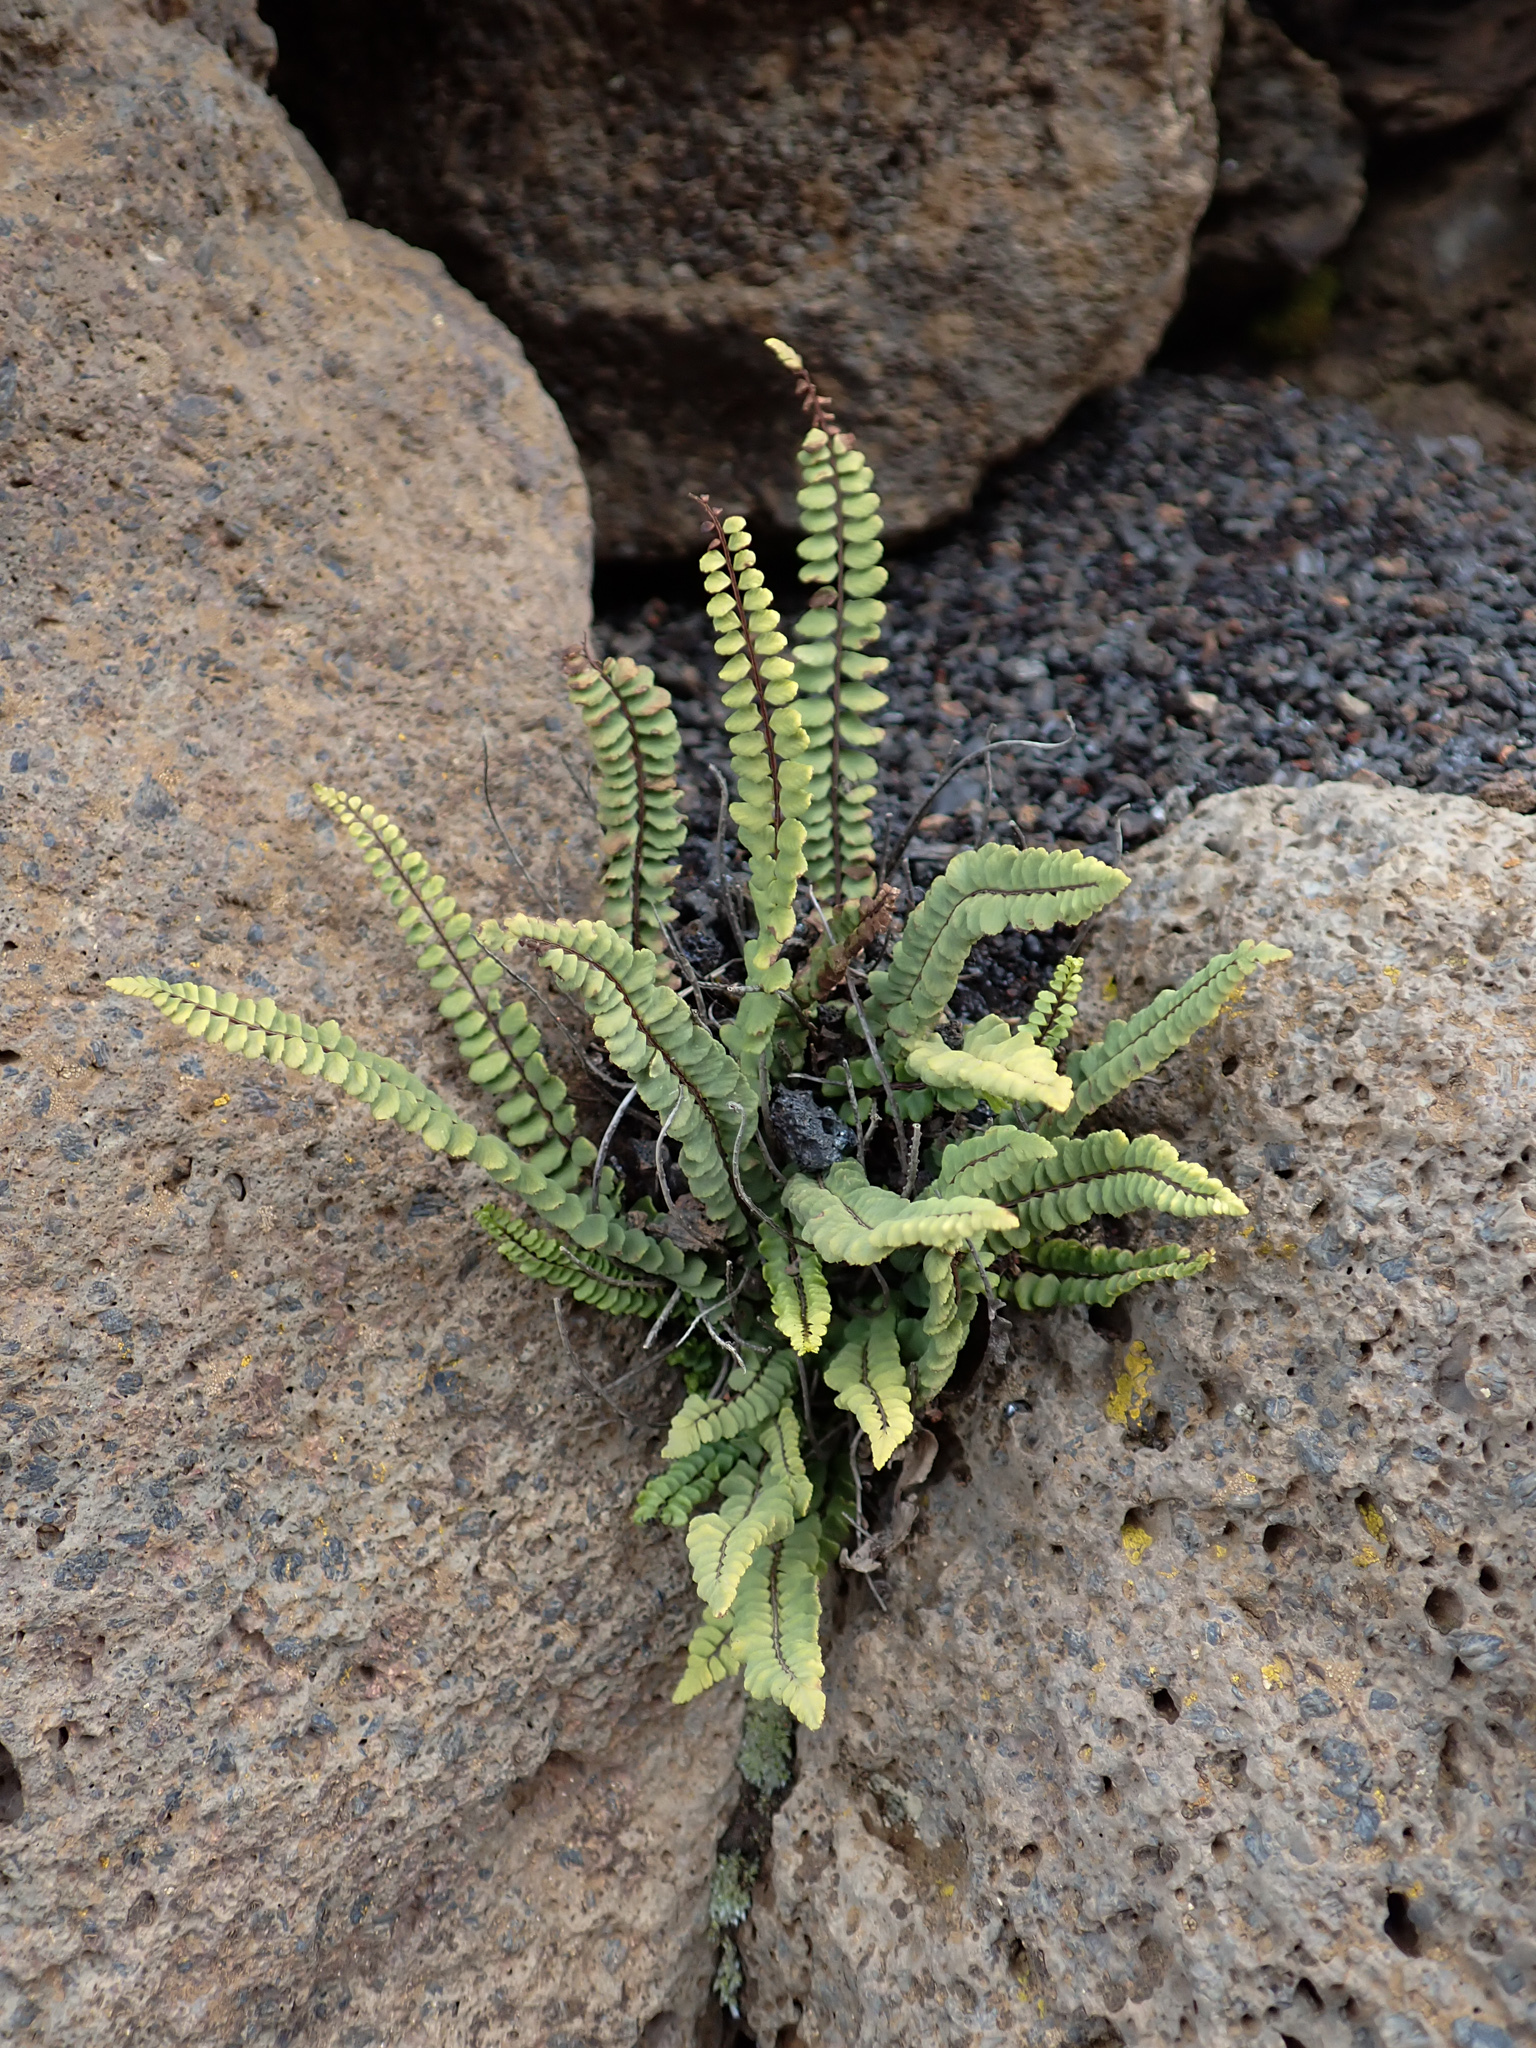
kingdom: Plantae
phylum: Tracheophyta
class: Polypodiopsida
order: Polypodiales
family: Aspleniaceae
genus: Asplenium
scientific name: Asplenium densum
